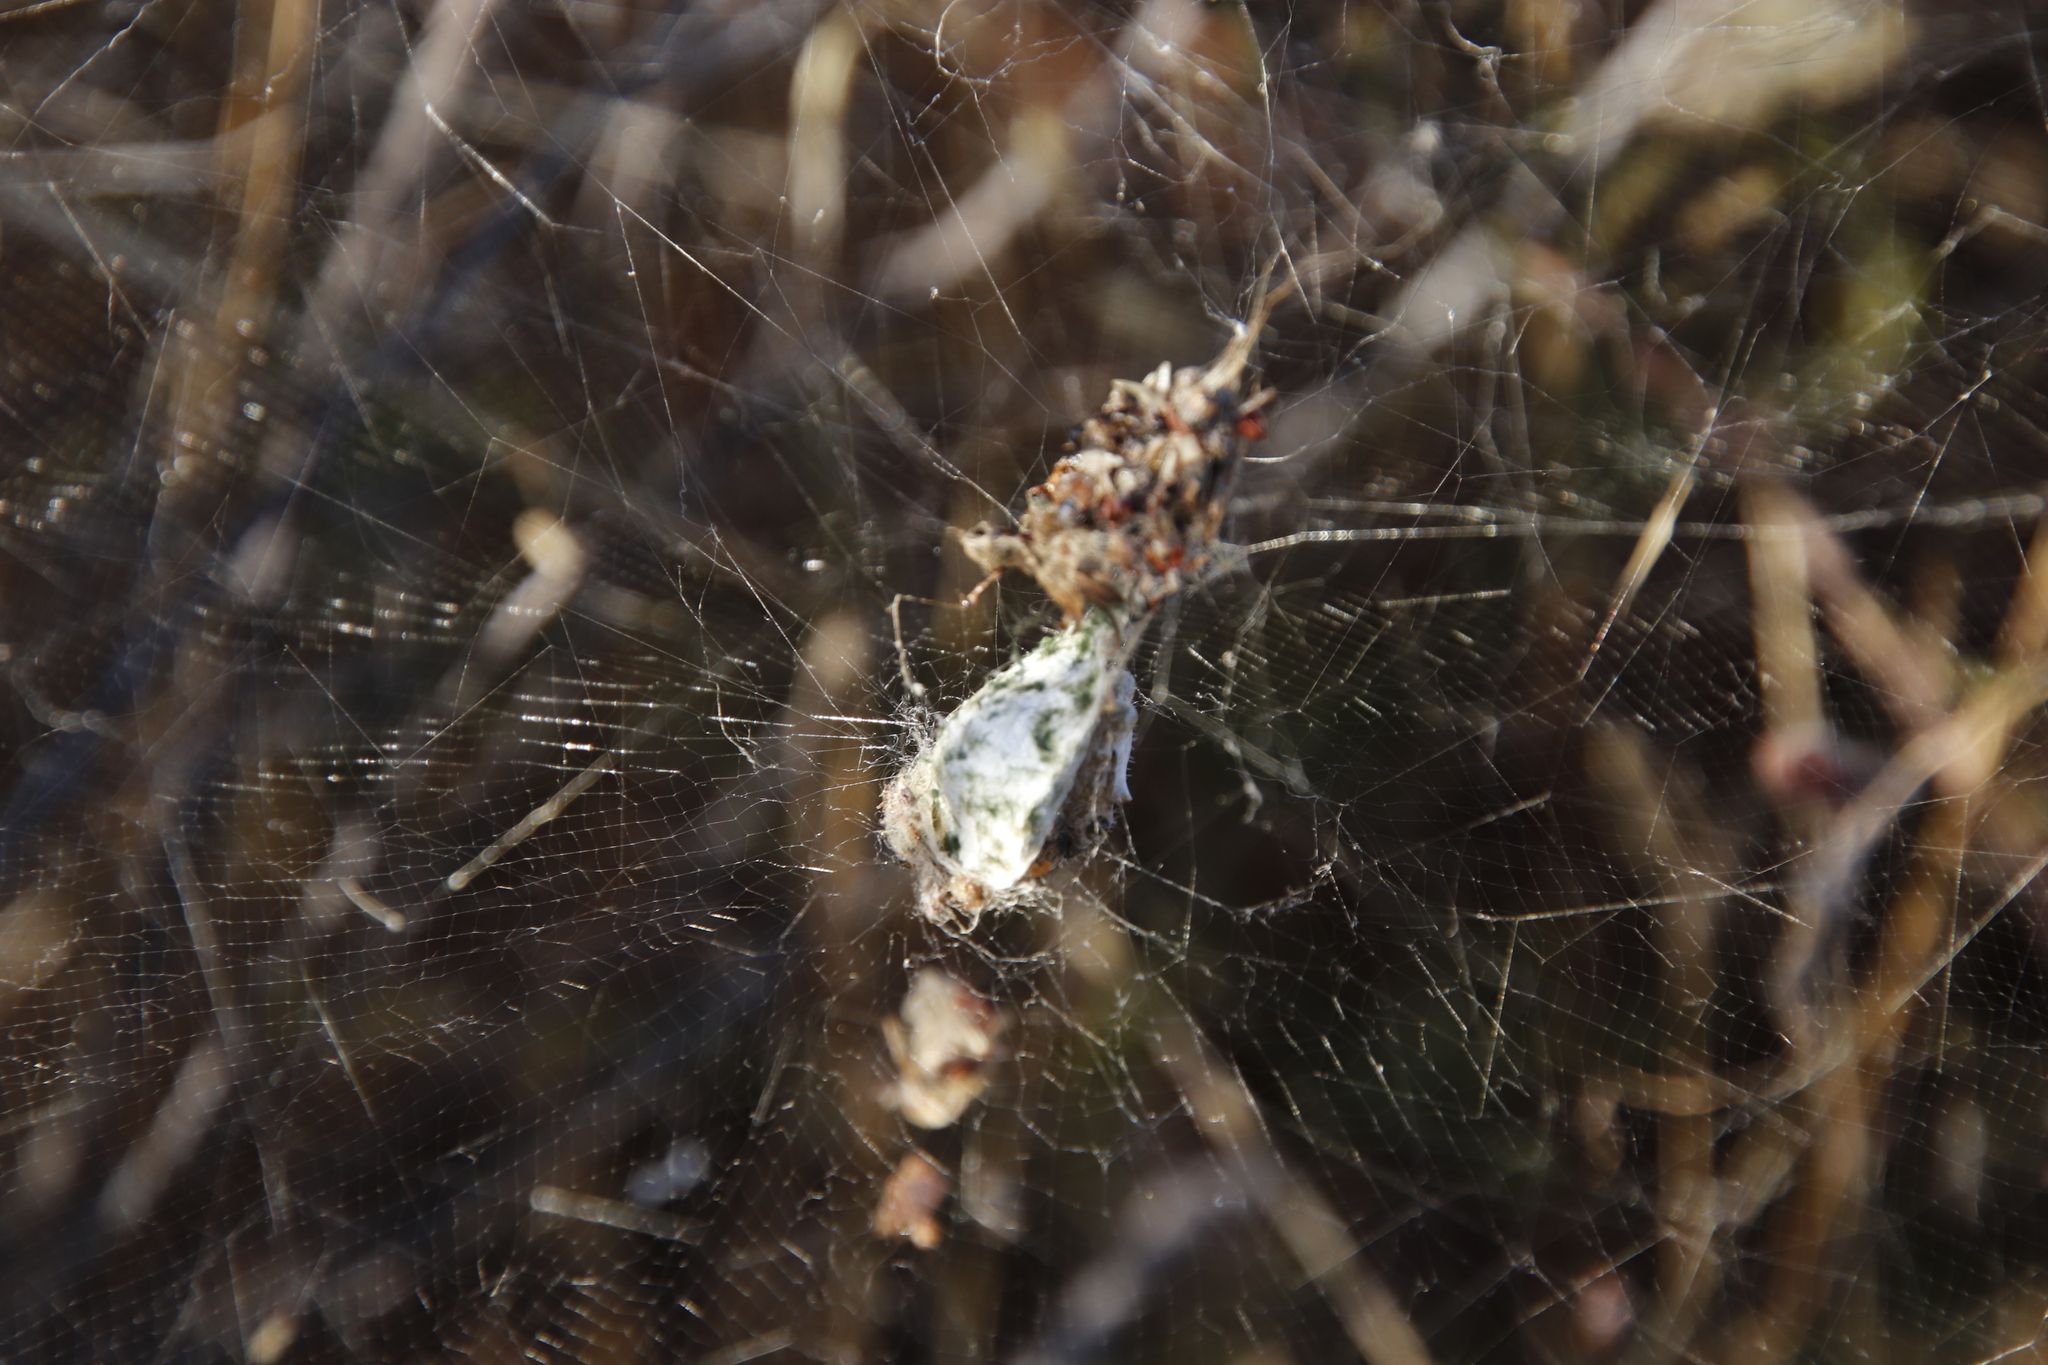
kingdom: Animalia
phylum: Arthropoda
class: Arachnida
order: Araneae
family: Araneidae
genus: Cyrtophora
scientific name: Cyrtophora citricola
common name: Orb weavers
